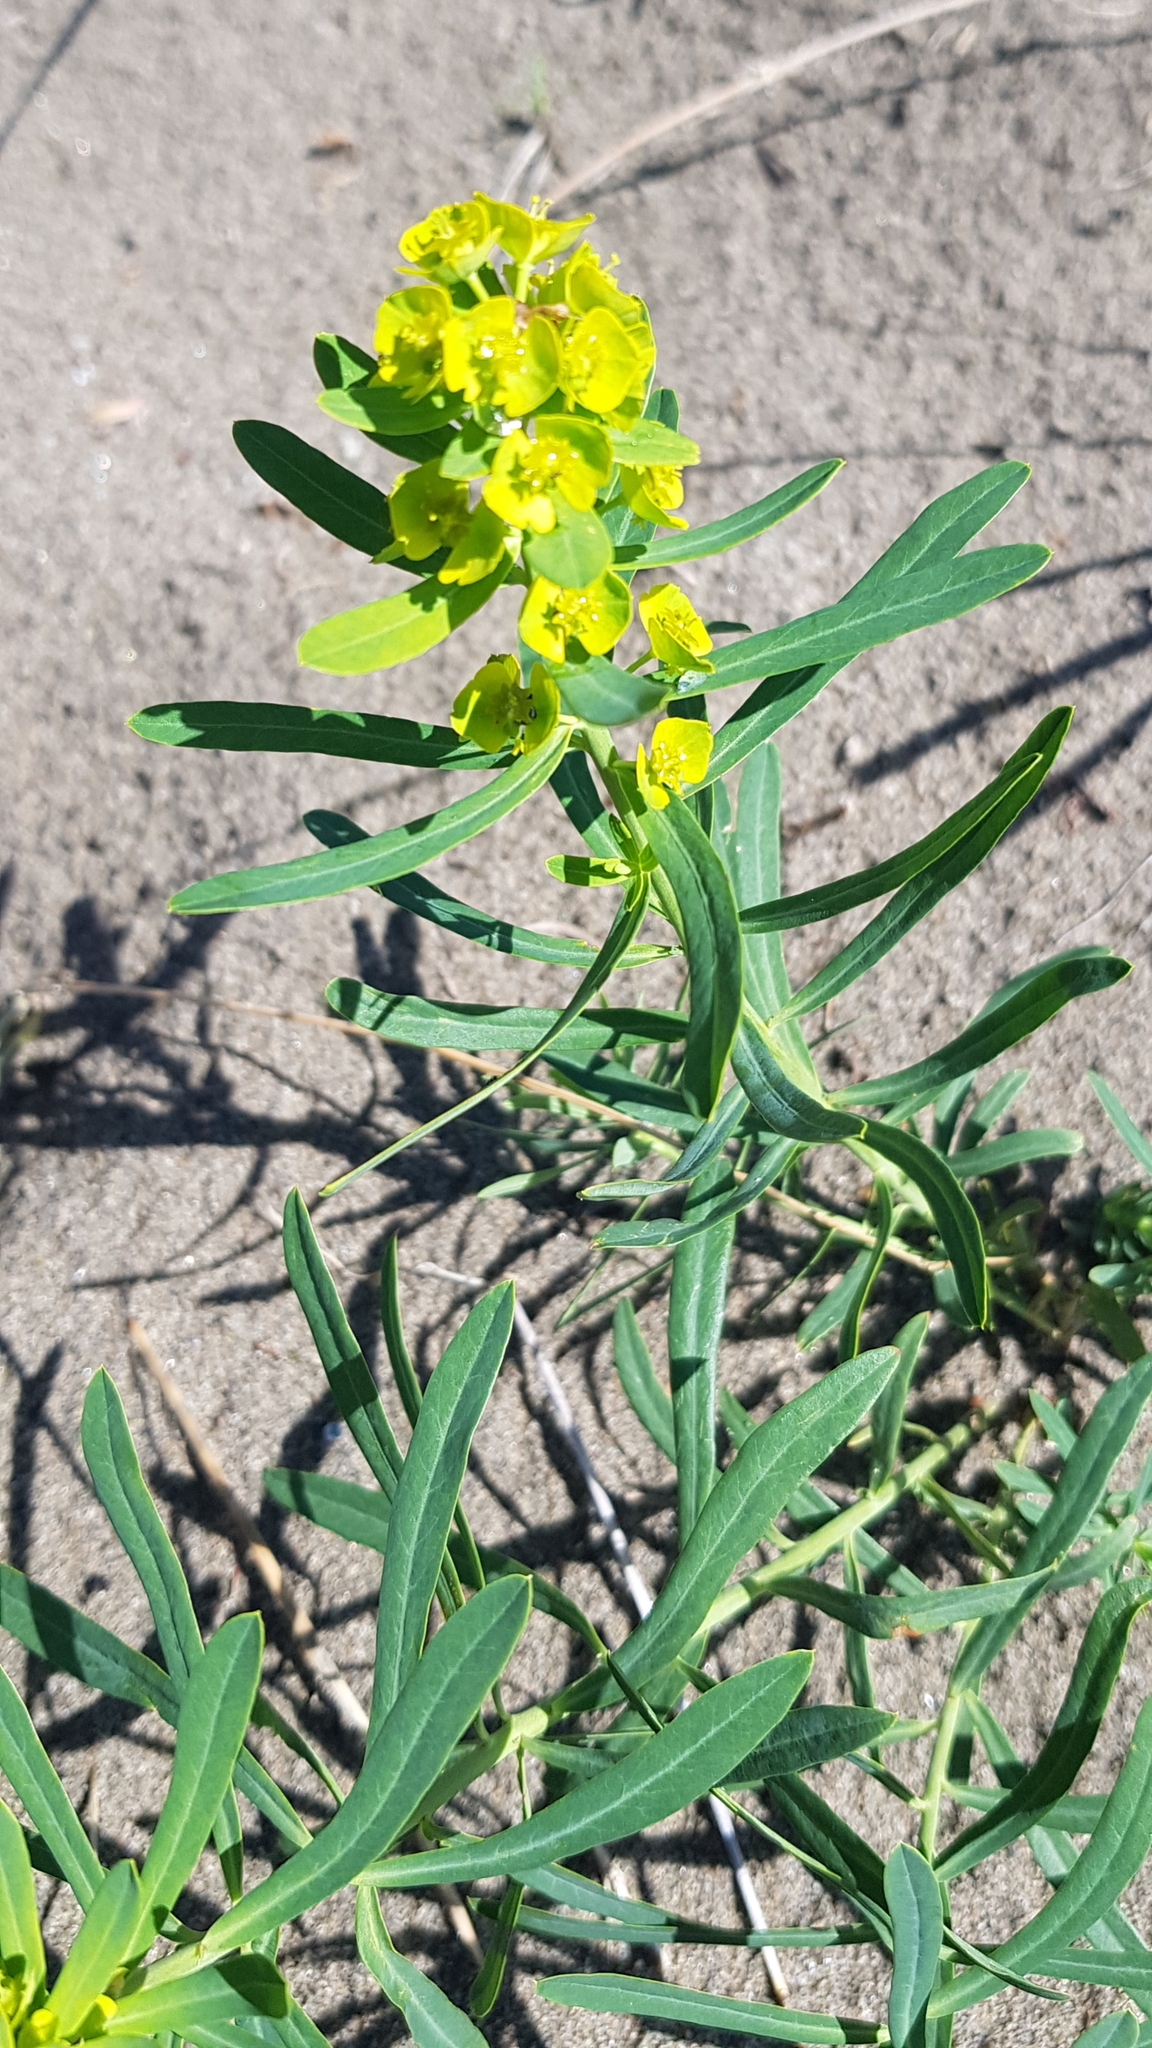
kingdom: Plantae
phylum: Tracheophyta
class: Magnoliopsida
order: Malpighiales
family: Euphorbiaceae
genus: Euphorbia
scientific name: Euphorbia esula
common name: Leafy spurge
